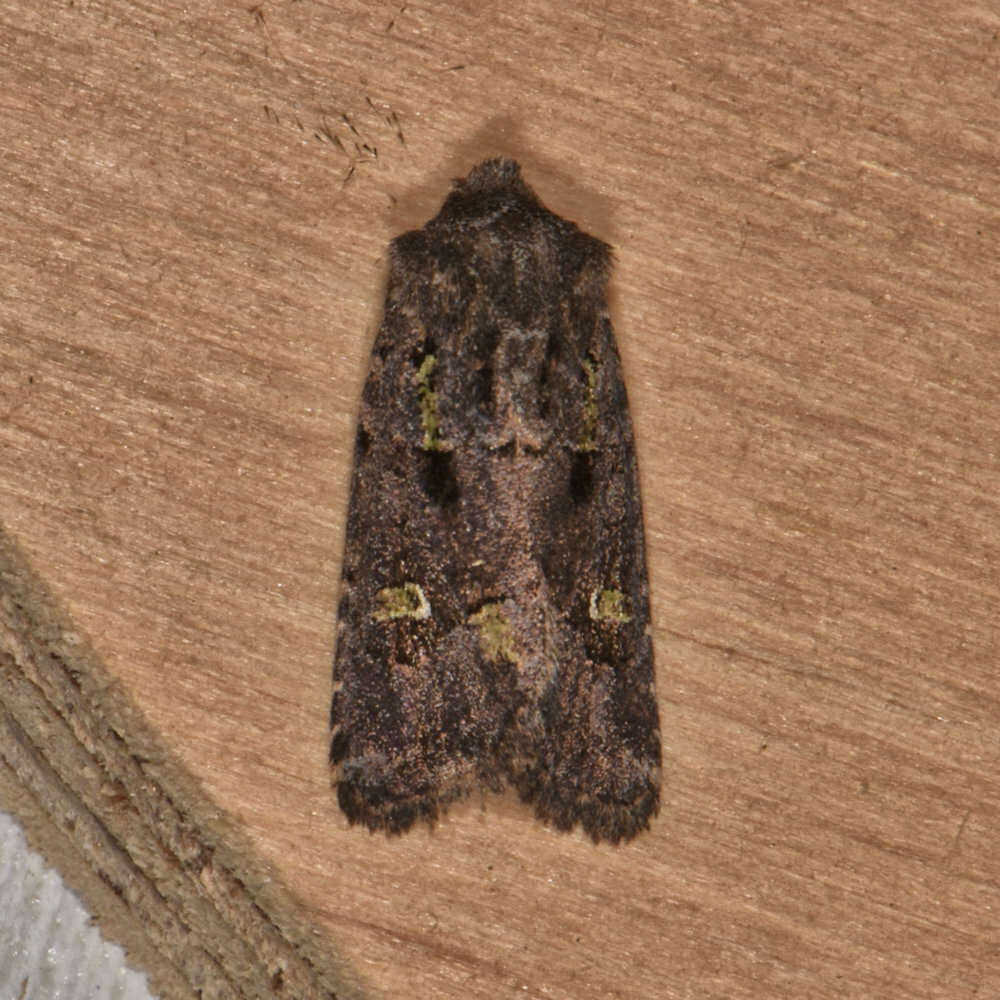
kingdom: Animalia
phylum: Arthropoda
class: Insecta
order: Lepidoptera
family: Noctuidae
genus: Lacinipolia
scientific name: Lacinipolia renigera
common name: Kidney-spotted minor
